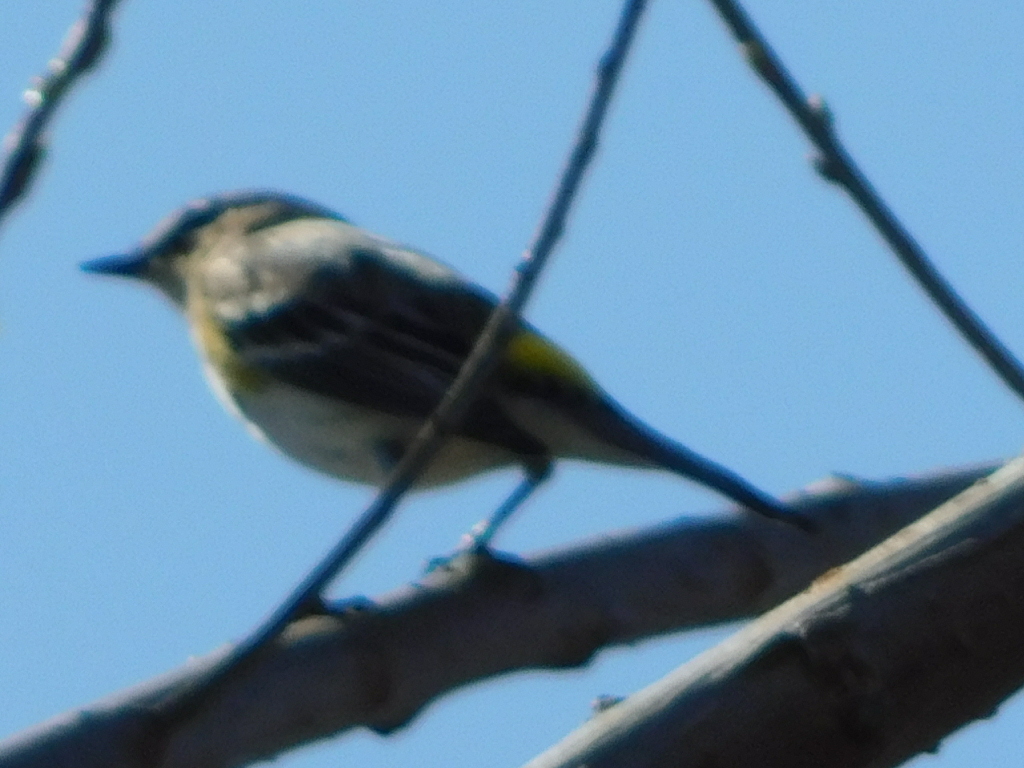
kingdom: Animalia
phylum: Chordata
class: Aves
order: Passeriformes
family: Parulidae
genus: Setophaga
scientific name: Setophaga coronata
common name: Myrtle warbler
